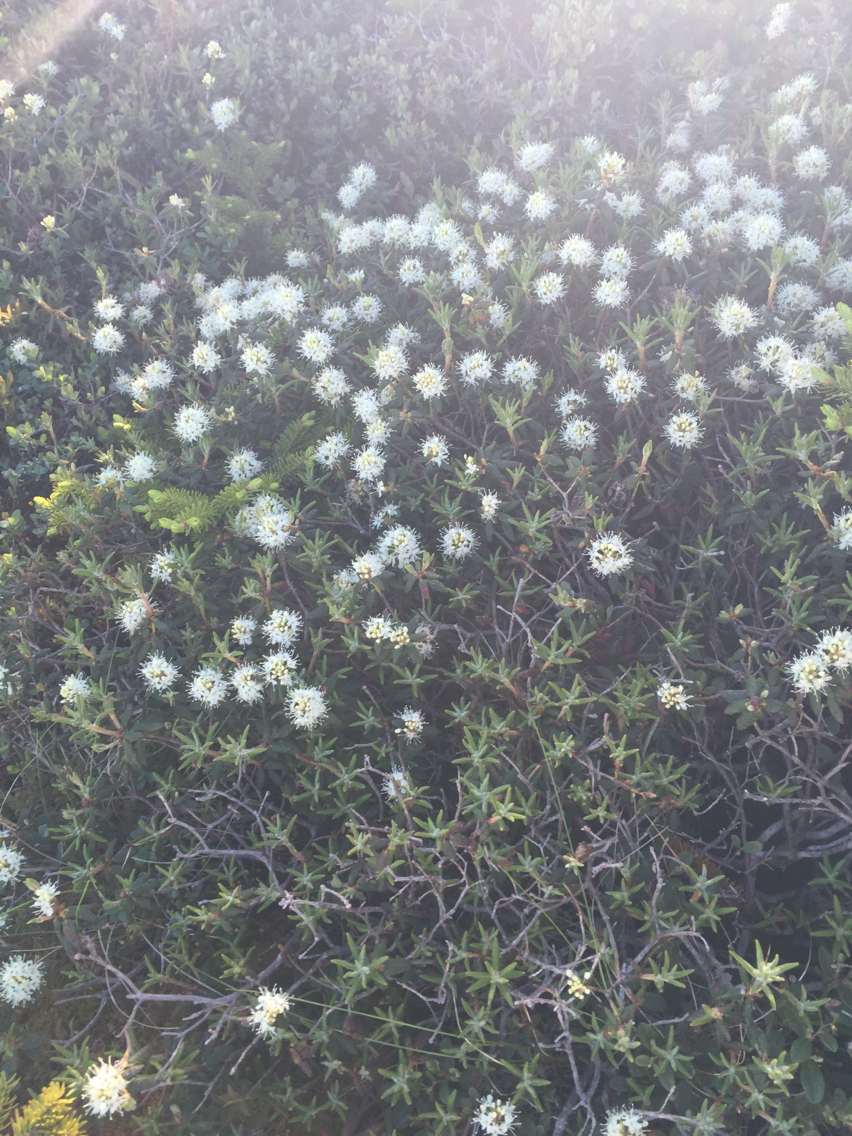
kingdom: Plantae
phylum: Tracheophyta
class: Magnoliopsida
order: Ericales
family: Ericaceae
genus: Rhododendron
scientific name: Rhododendron groenlandicum
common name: Bog labrador tea
